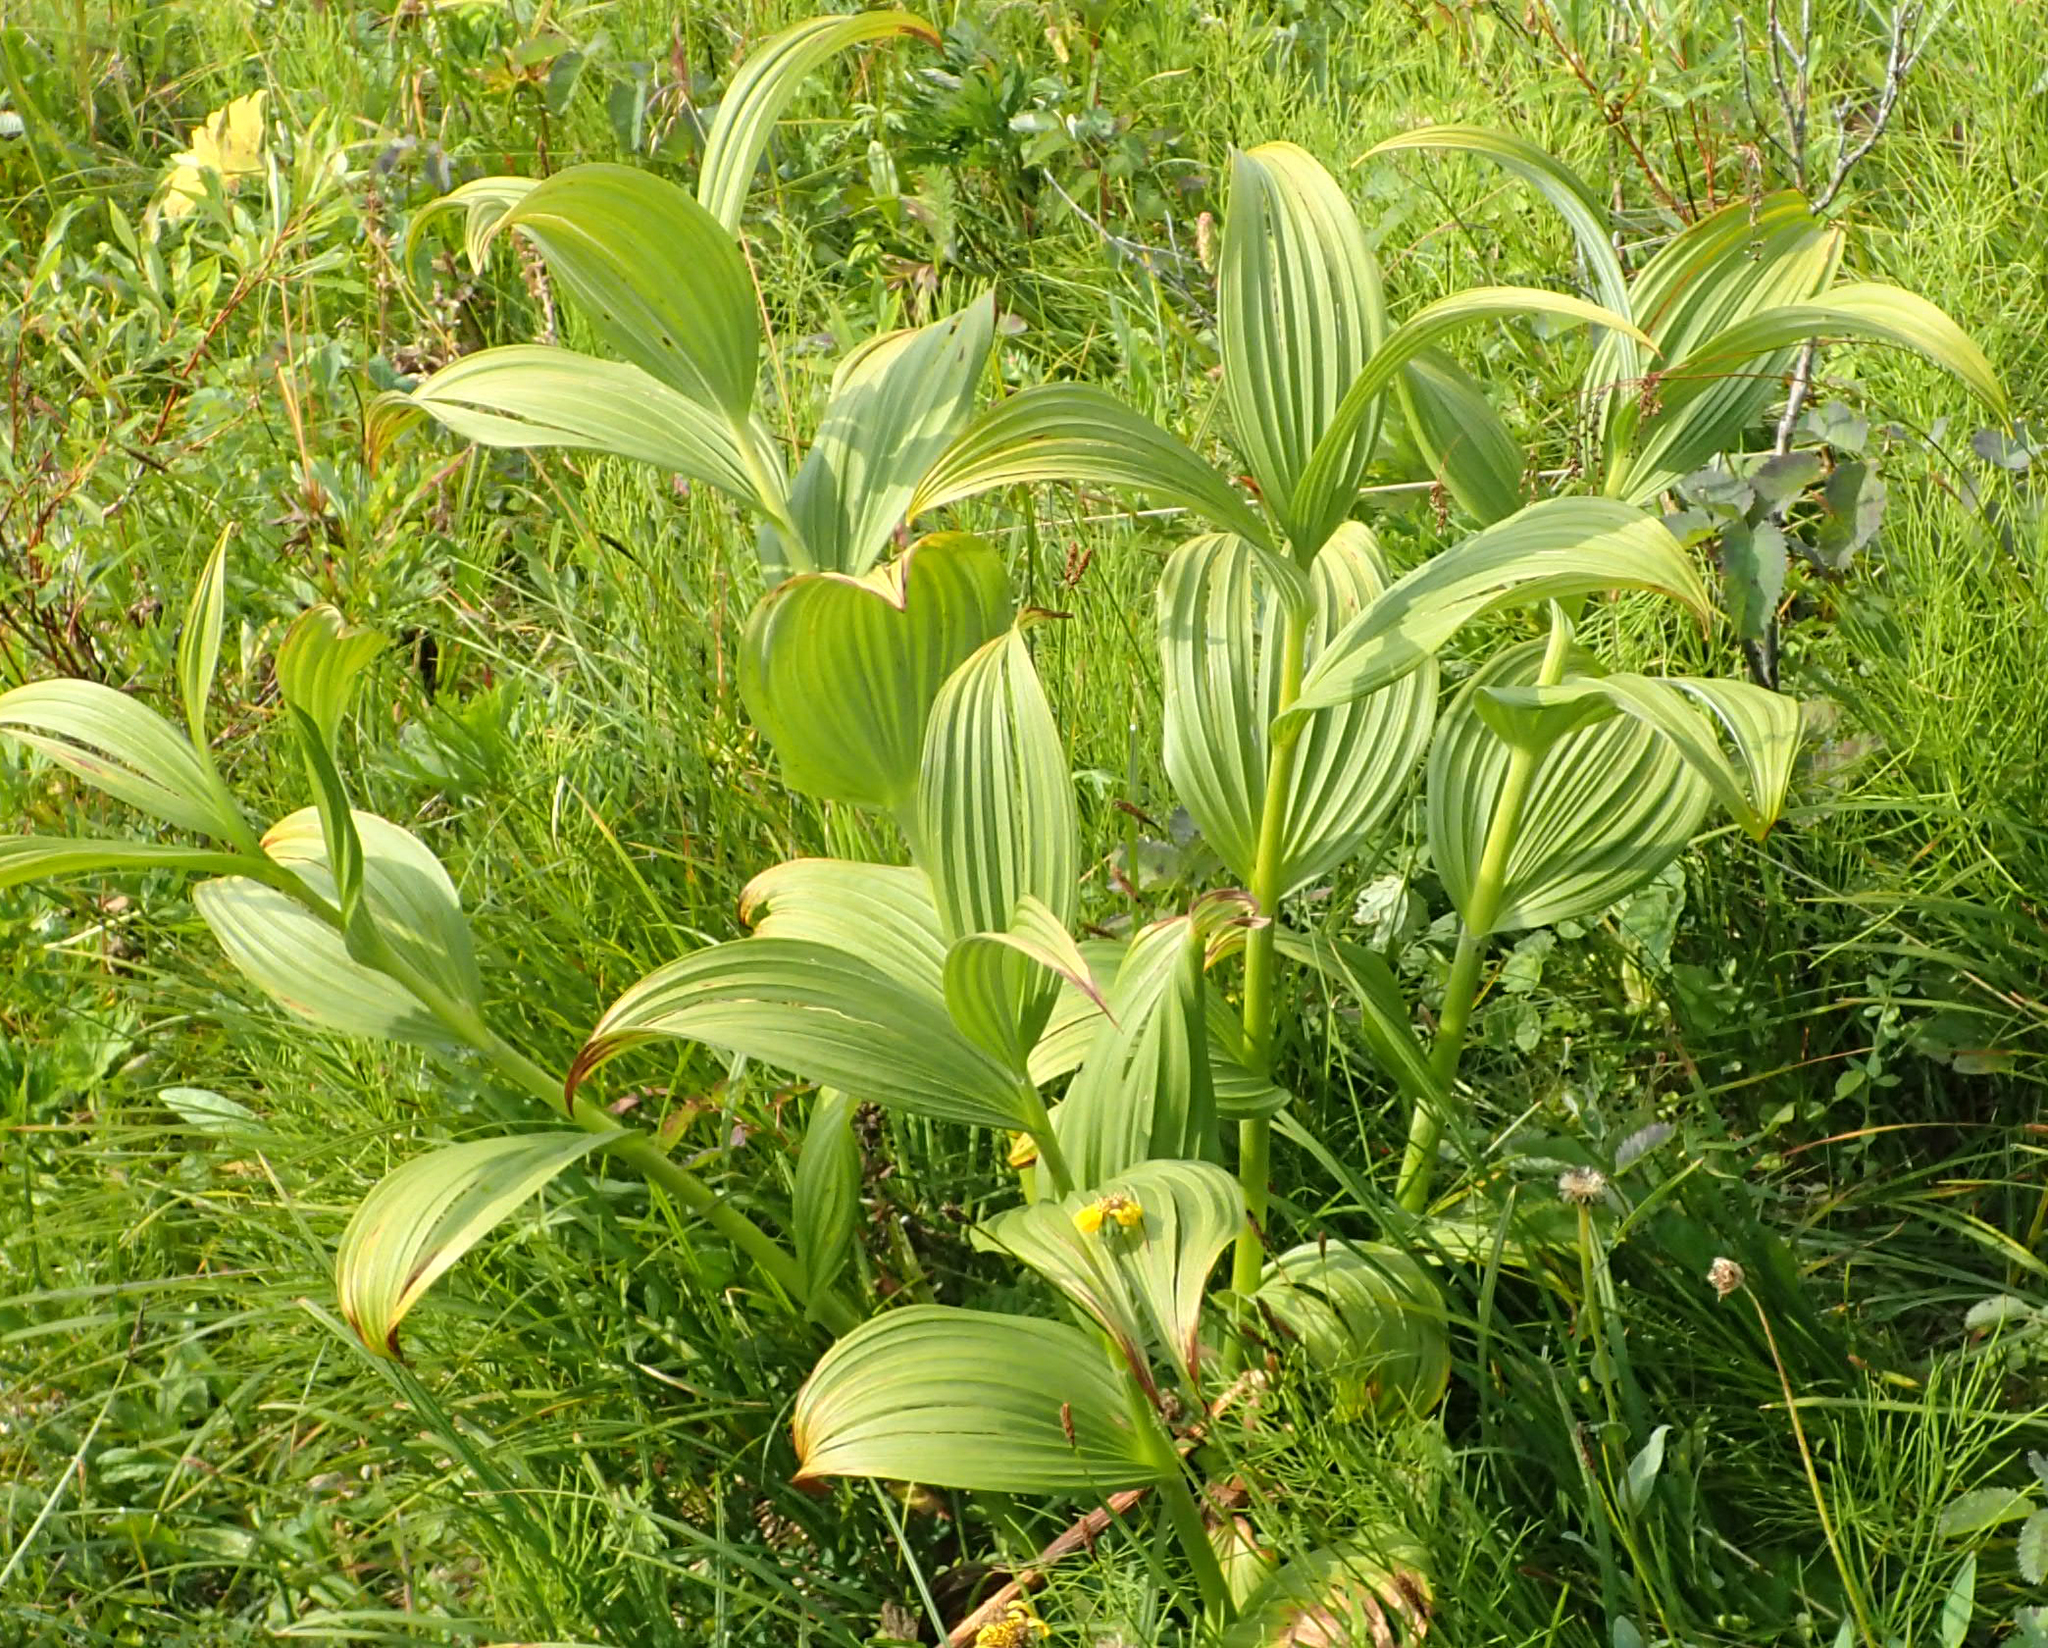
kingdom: Plantae
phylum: Tracheophyta
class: Liliopsida
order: Liliales
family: Melanthiaceae
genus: Veratrum
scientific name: Veratrum viride
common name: American false hellebore
